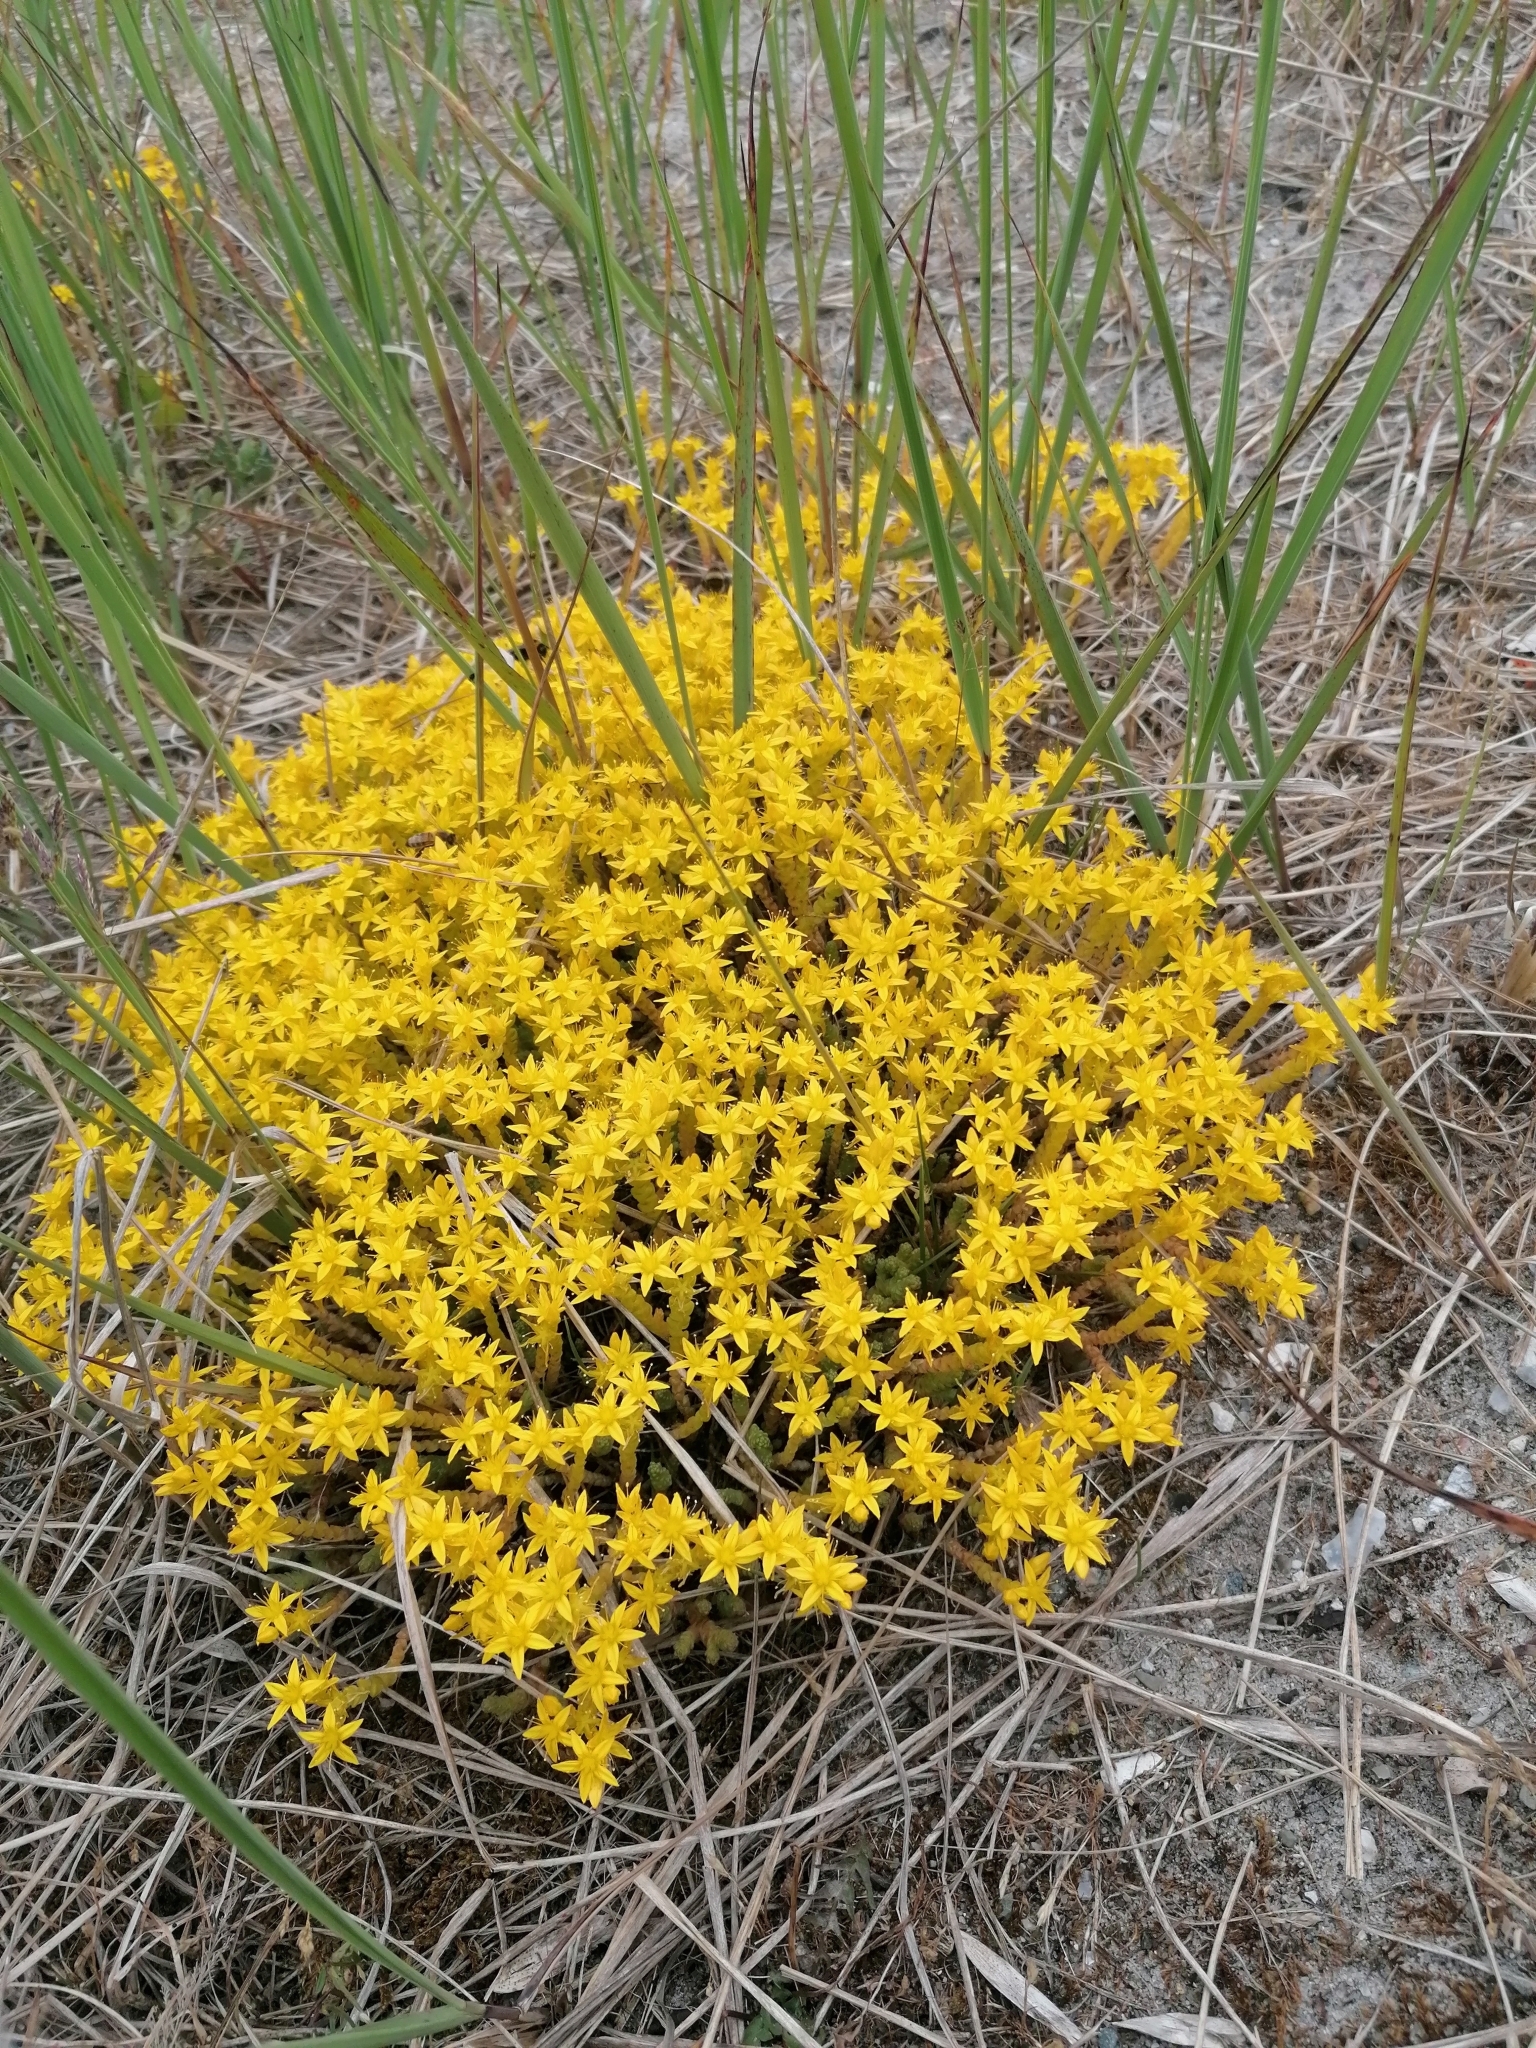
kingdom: Plantae
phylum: Tracheophyta
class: Magnoliopsida
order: Saxifragales
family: Crassulaceae
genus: Sedum
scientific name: Sedum acre
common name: Biting stonecrop
